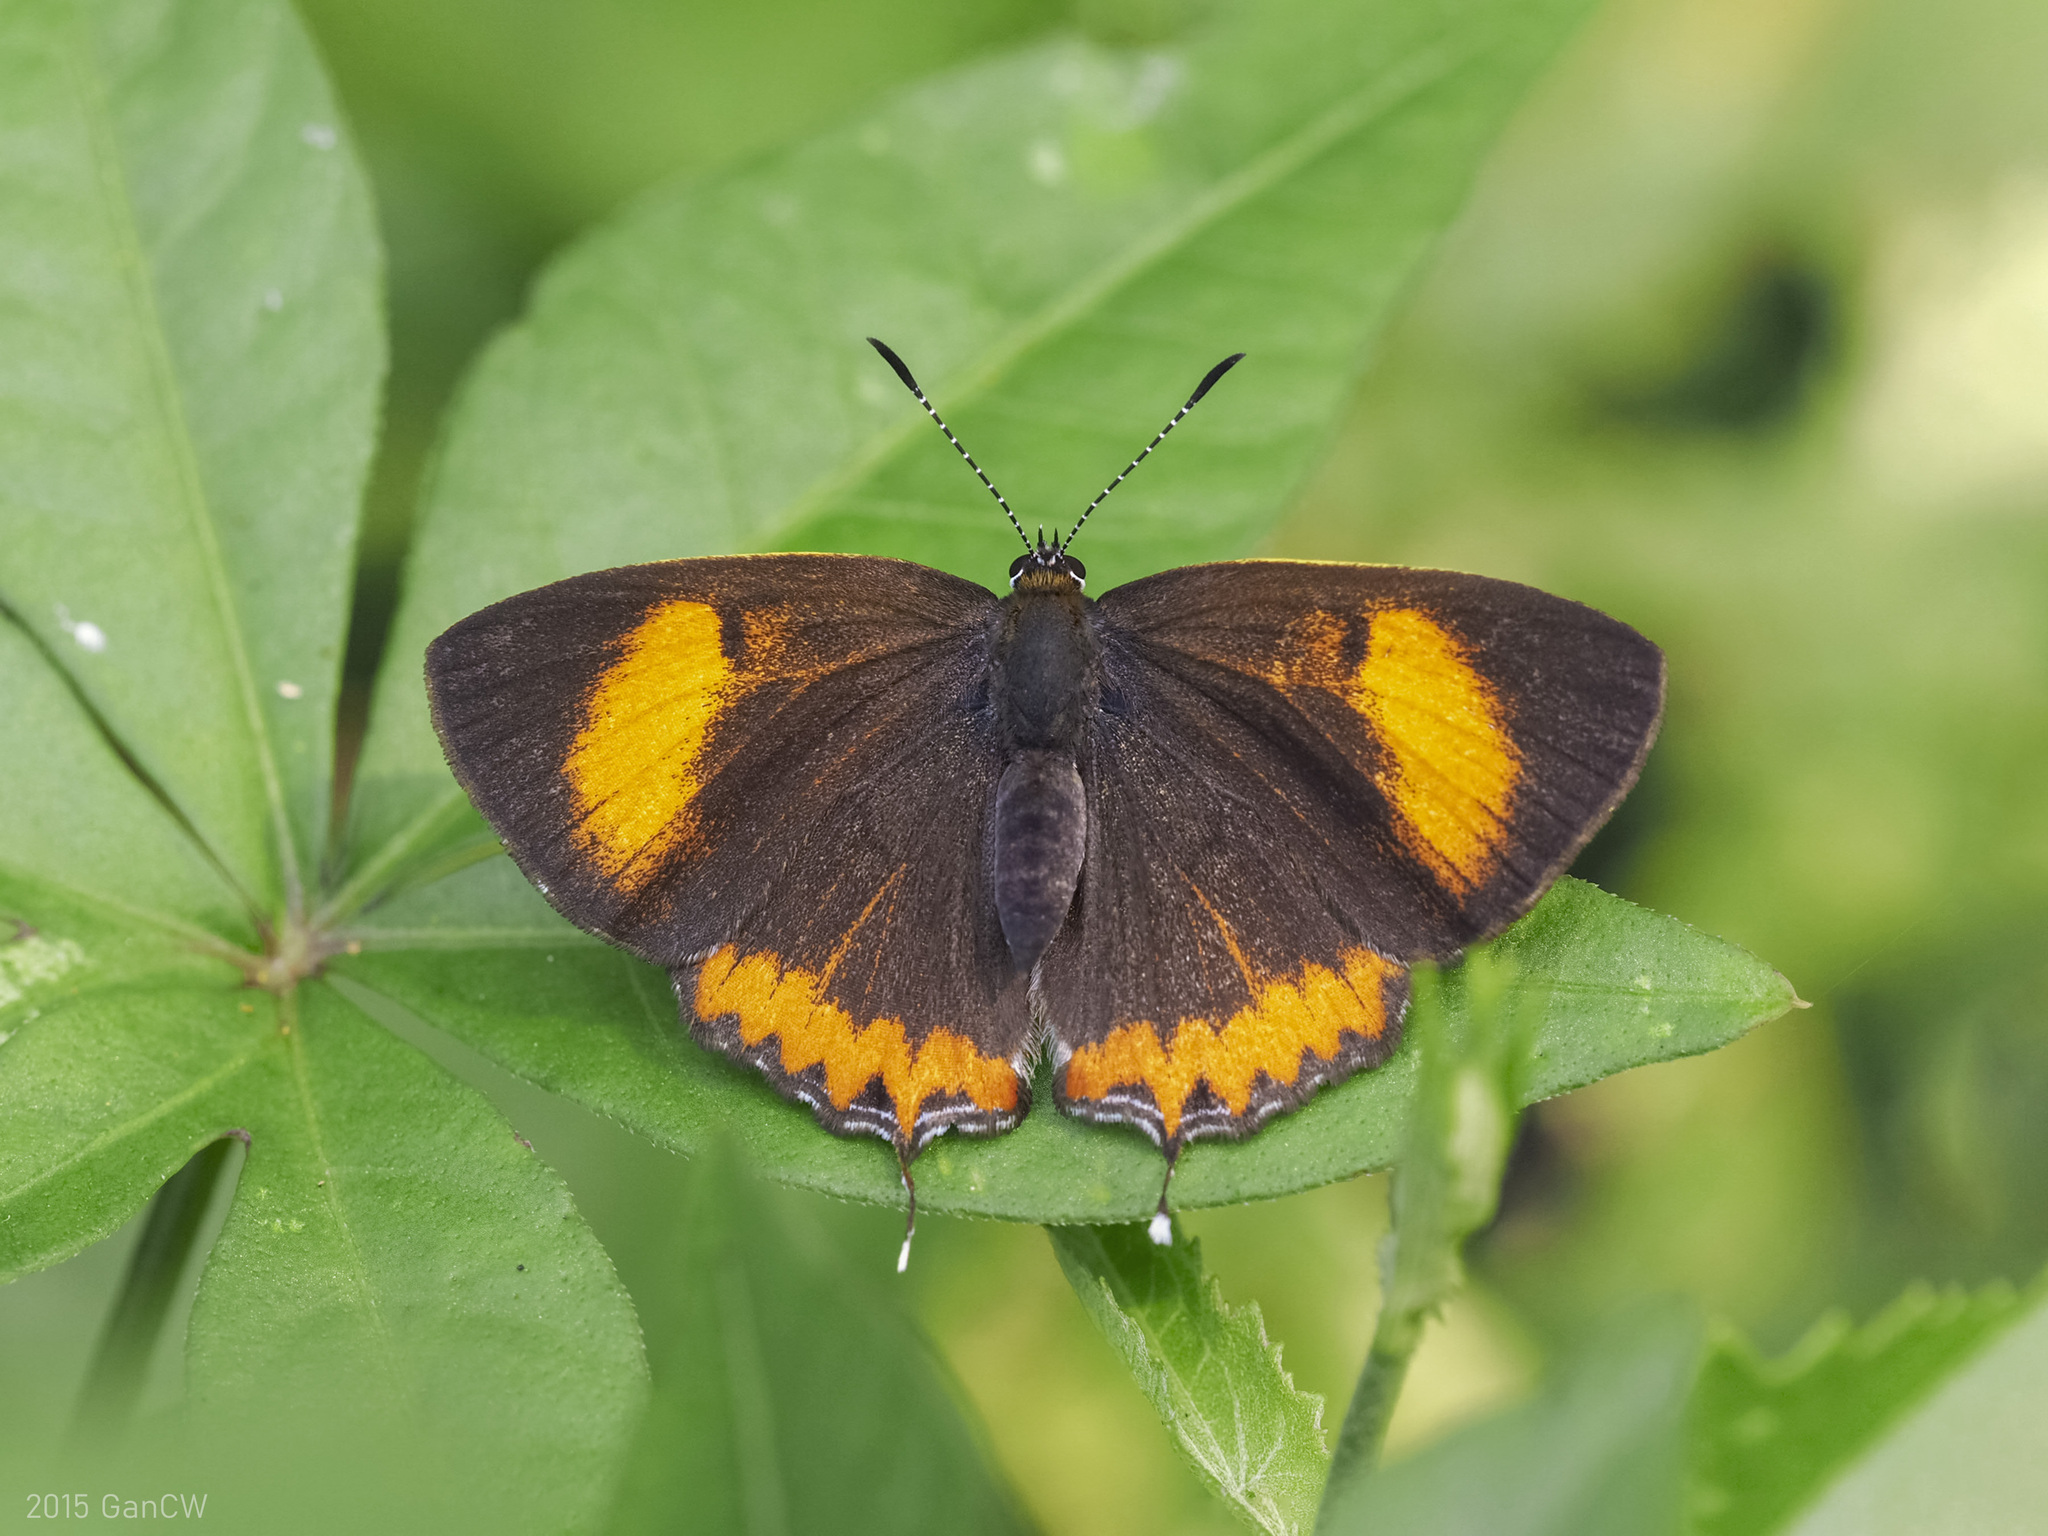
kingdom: Animalia
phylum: Arthropoda
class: Insecta
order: Lepidoptera
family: Lycaenidae
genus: Heliophorus
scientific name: Heliophorus epicles
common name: Purple sapphire
